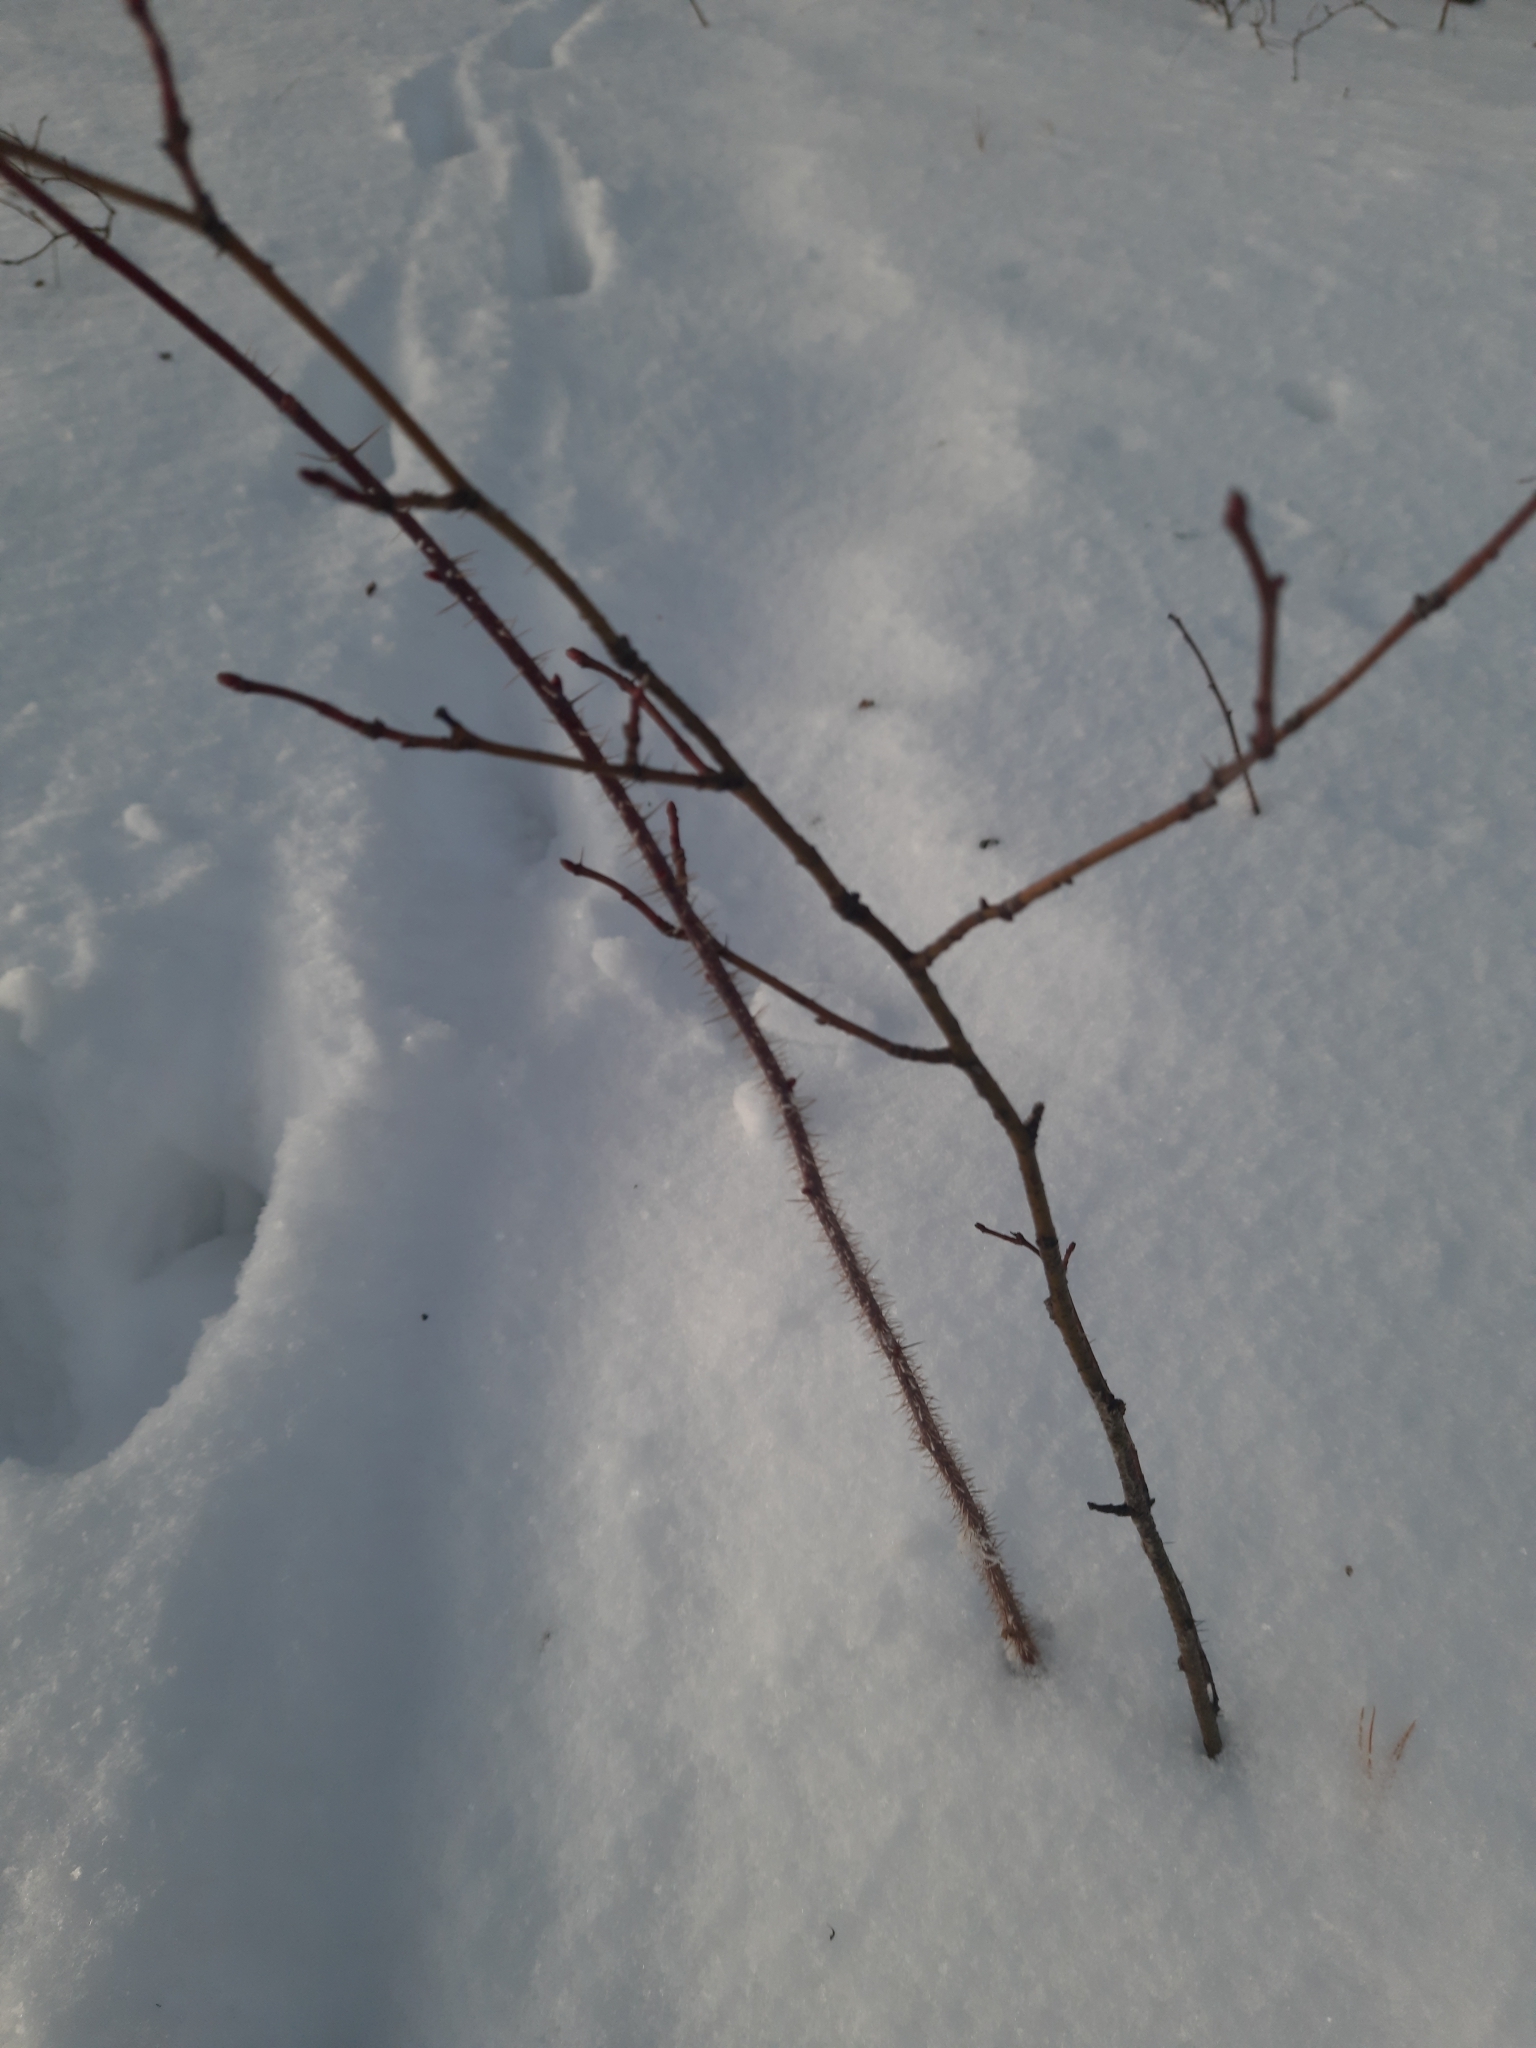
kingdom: Plantae
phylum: Tracheophyta
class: Magnoliopsida
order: Rosales
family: Rosaceae
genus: Rosa
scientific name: Rosa acicularis
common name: Prickly rose
